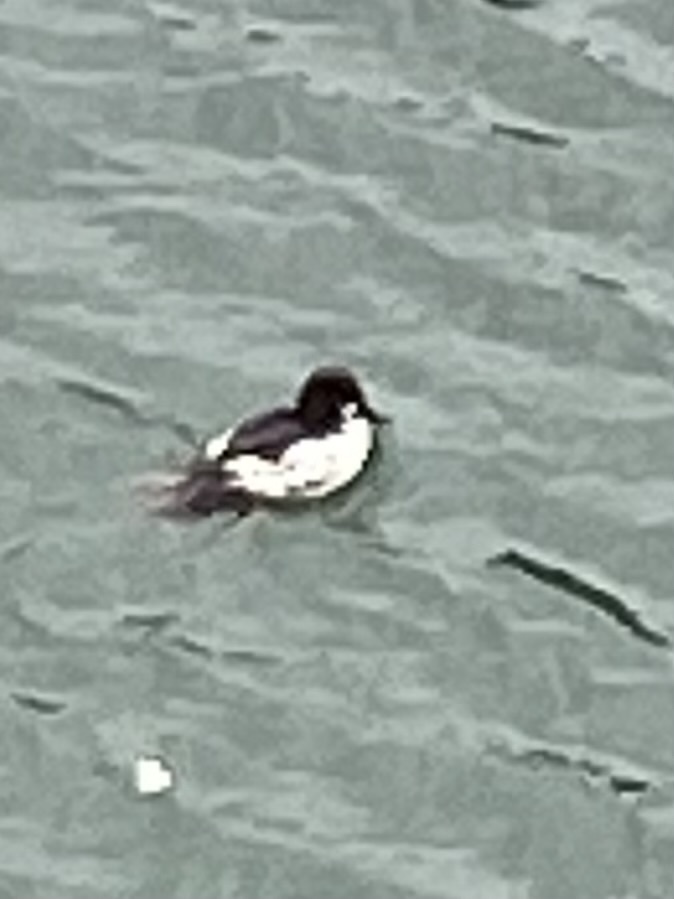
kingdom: Animalia
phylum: Chordata
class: Aves
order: Anseriformes
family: Anatidae
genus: Bucephala
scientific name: Bucephala clangula
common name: Common goldeneye
